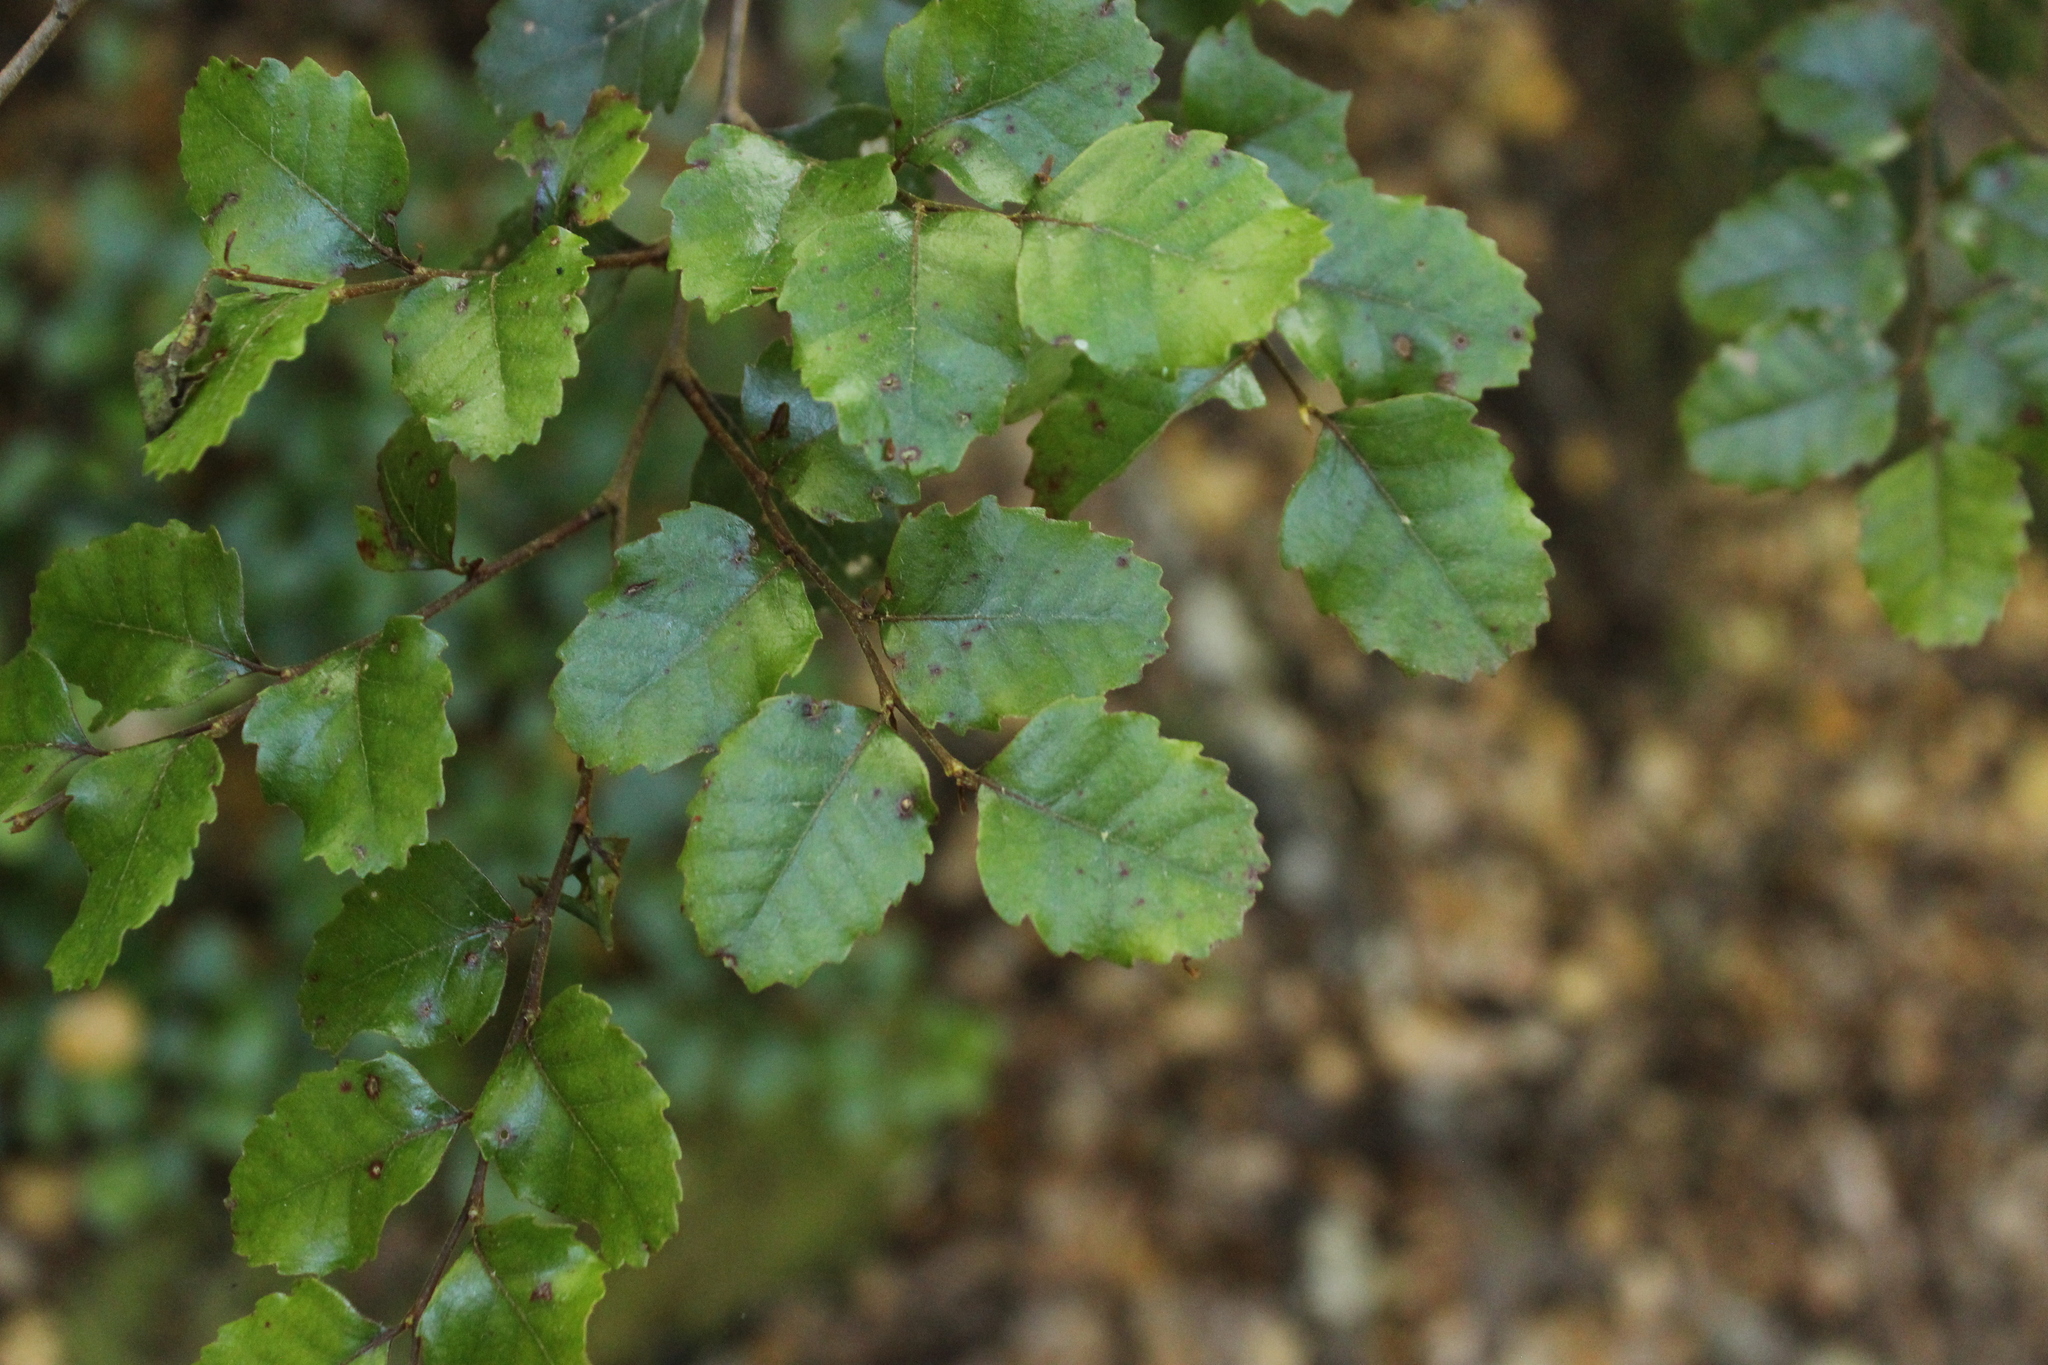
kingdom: Plantae
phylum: Tracheophyta
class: Magnoliopsida
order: Fagales
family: Nothofagaceae
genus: Nothofagus
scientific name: Nothofagus truncata
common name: Hard beech
